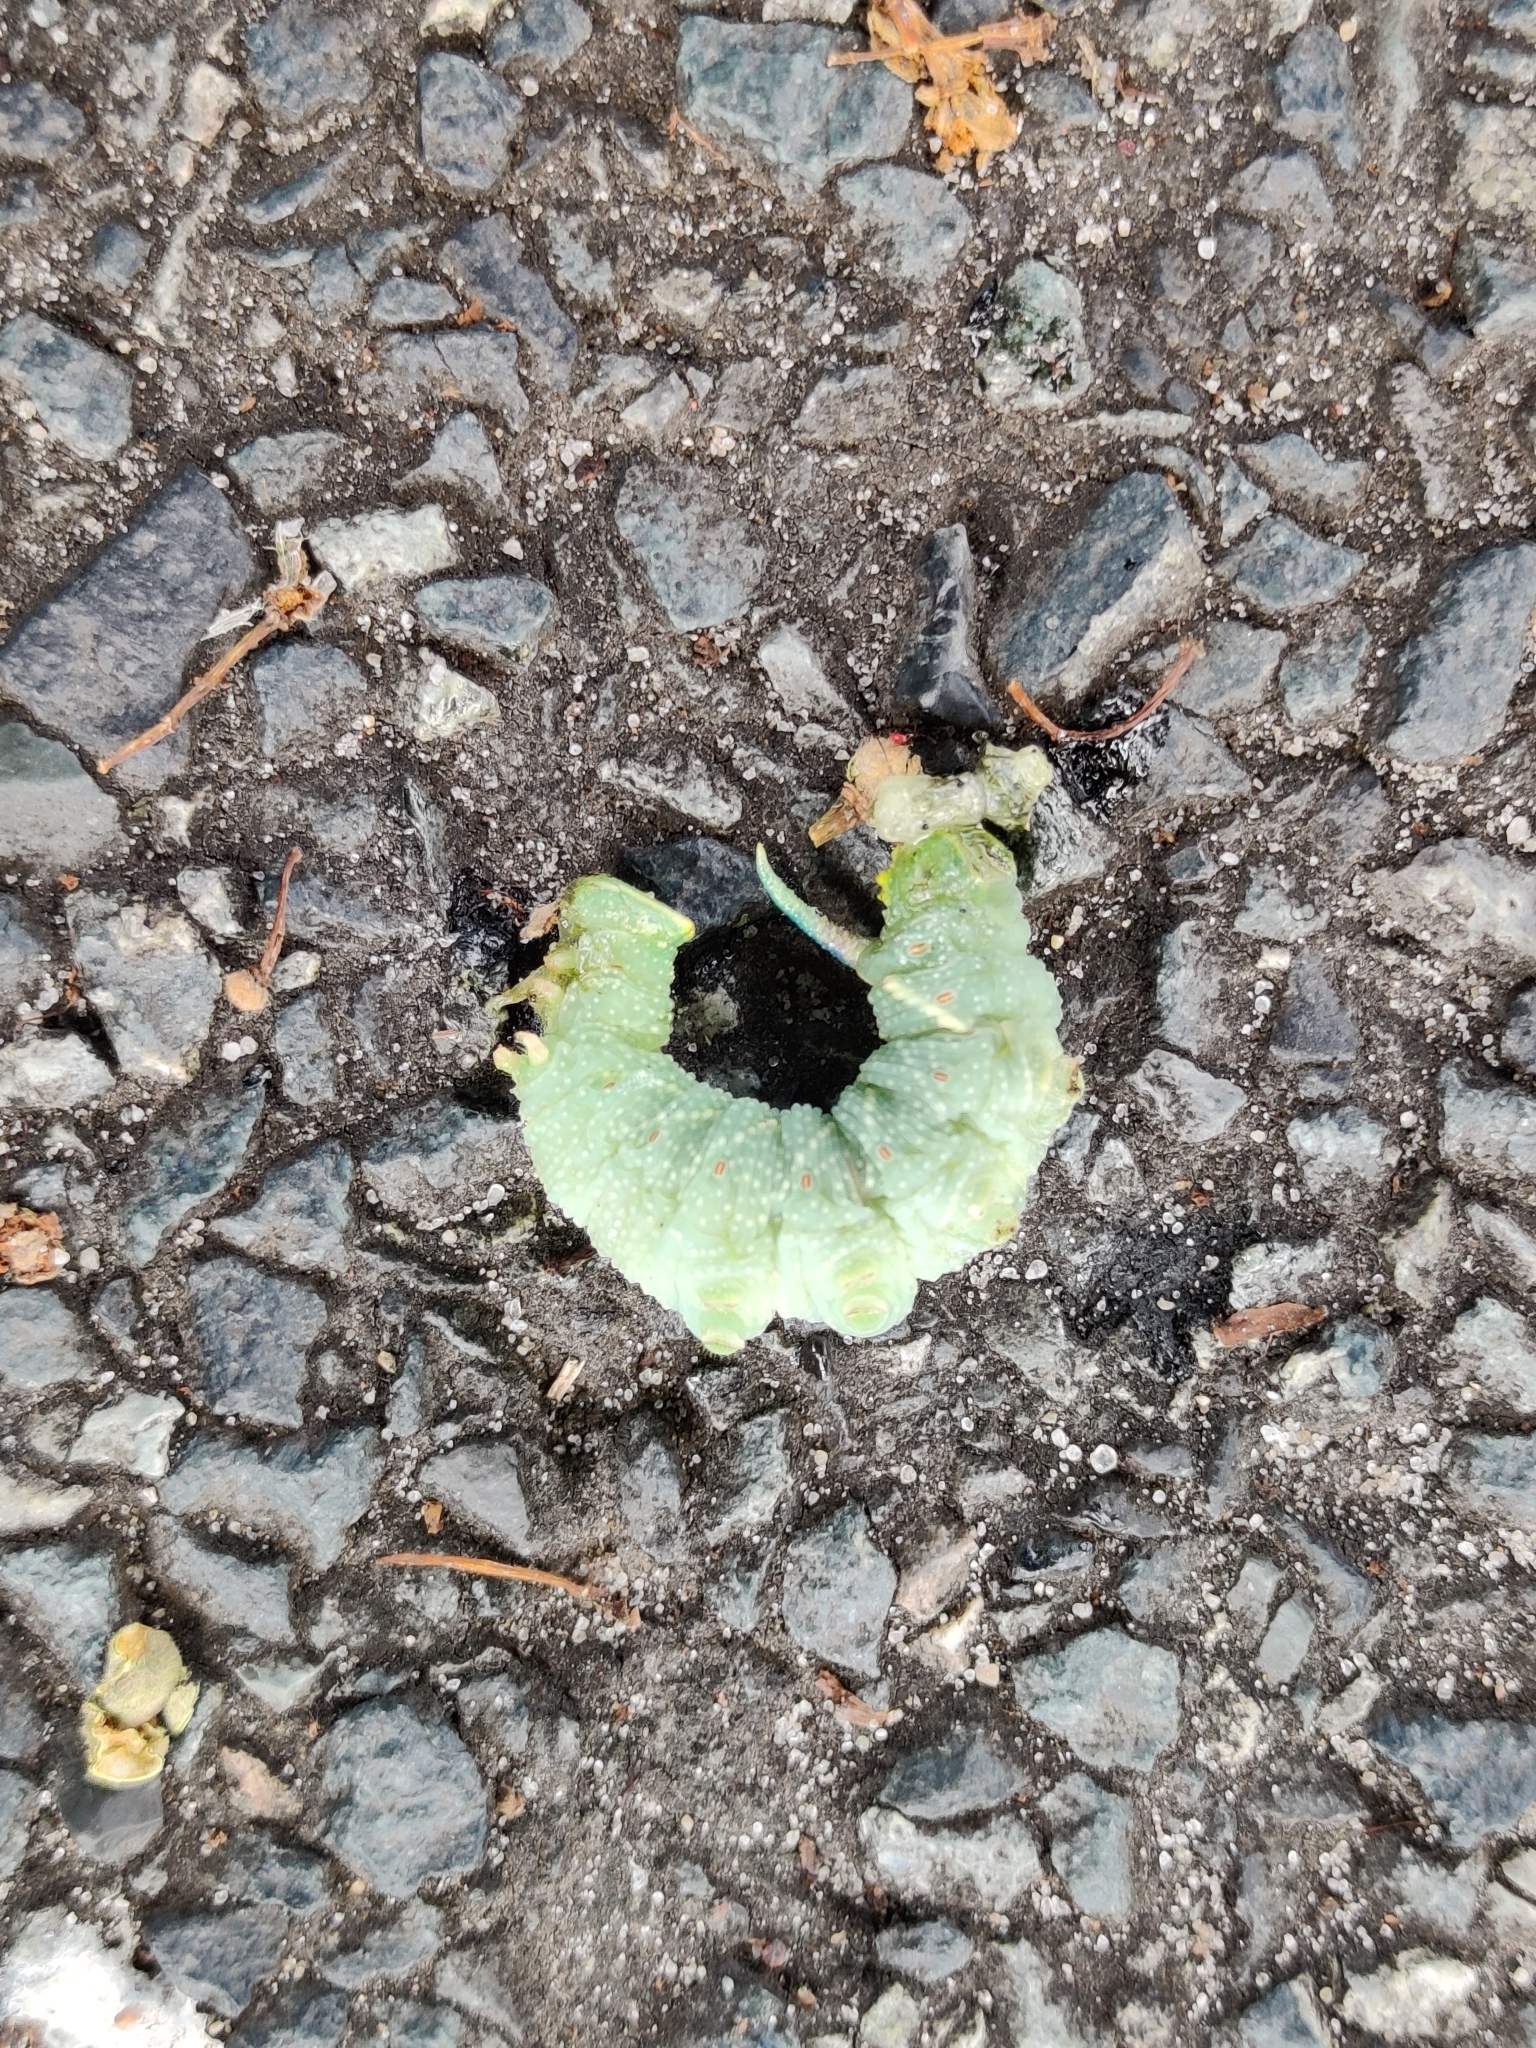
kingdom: Animalia
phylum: Arthropoda
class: Insecta
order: Lepidoptera
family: Sphingidae
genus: Mimas
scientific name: Mimas tiliae
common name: Lime hawk-moth
